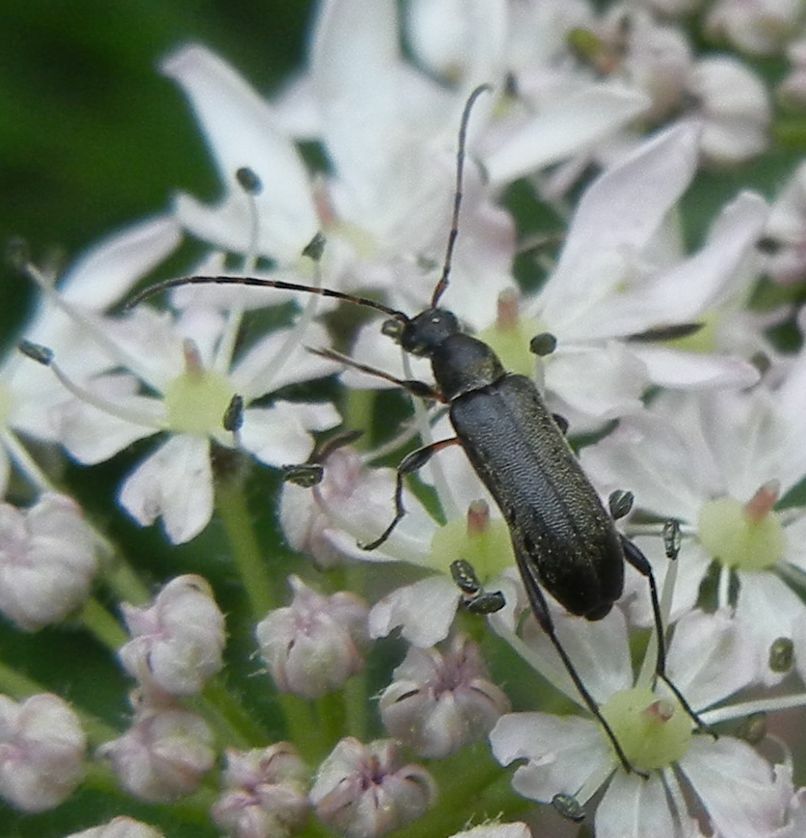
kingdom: Animalia
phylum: Arthropoda
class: Insecta
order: Coleoptera
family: Cerambycidae
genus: Grammoptera
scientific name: Grammoptera ruficornis
